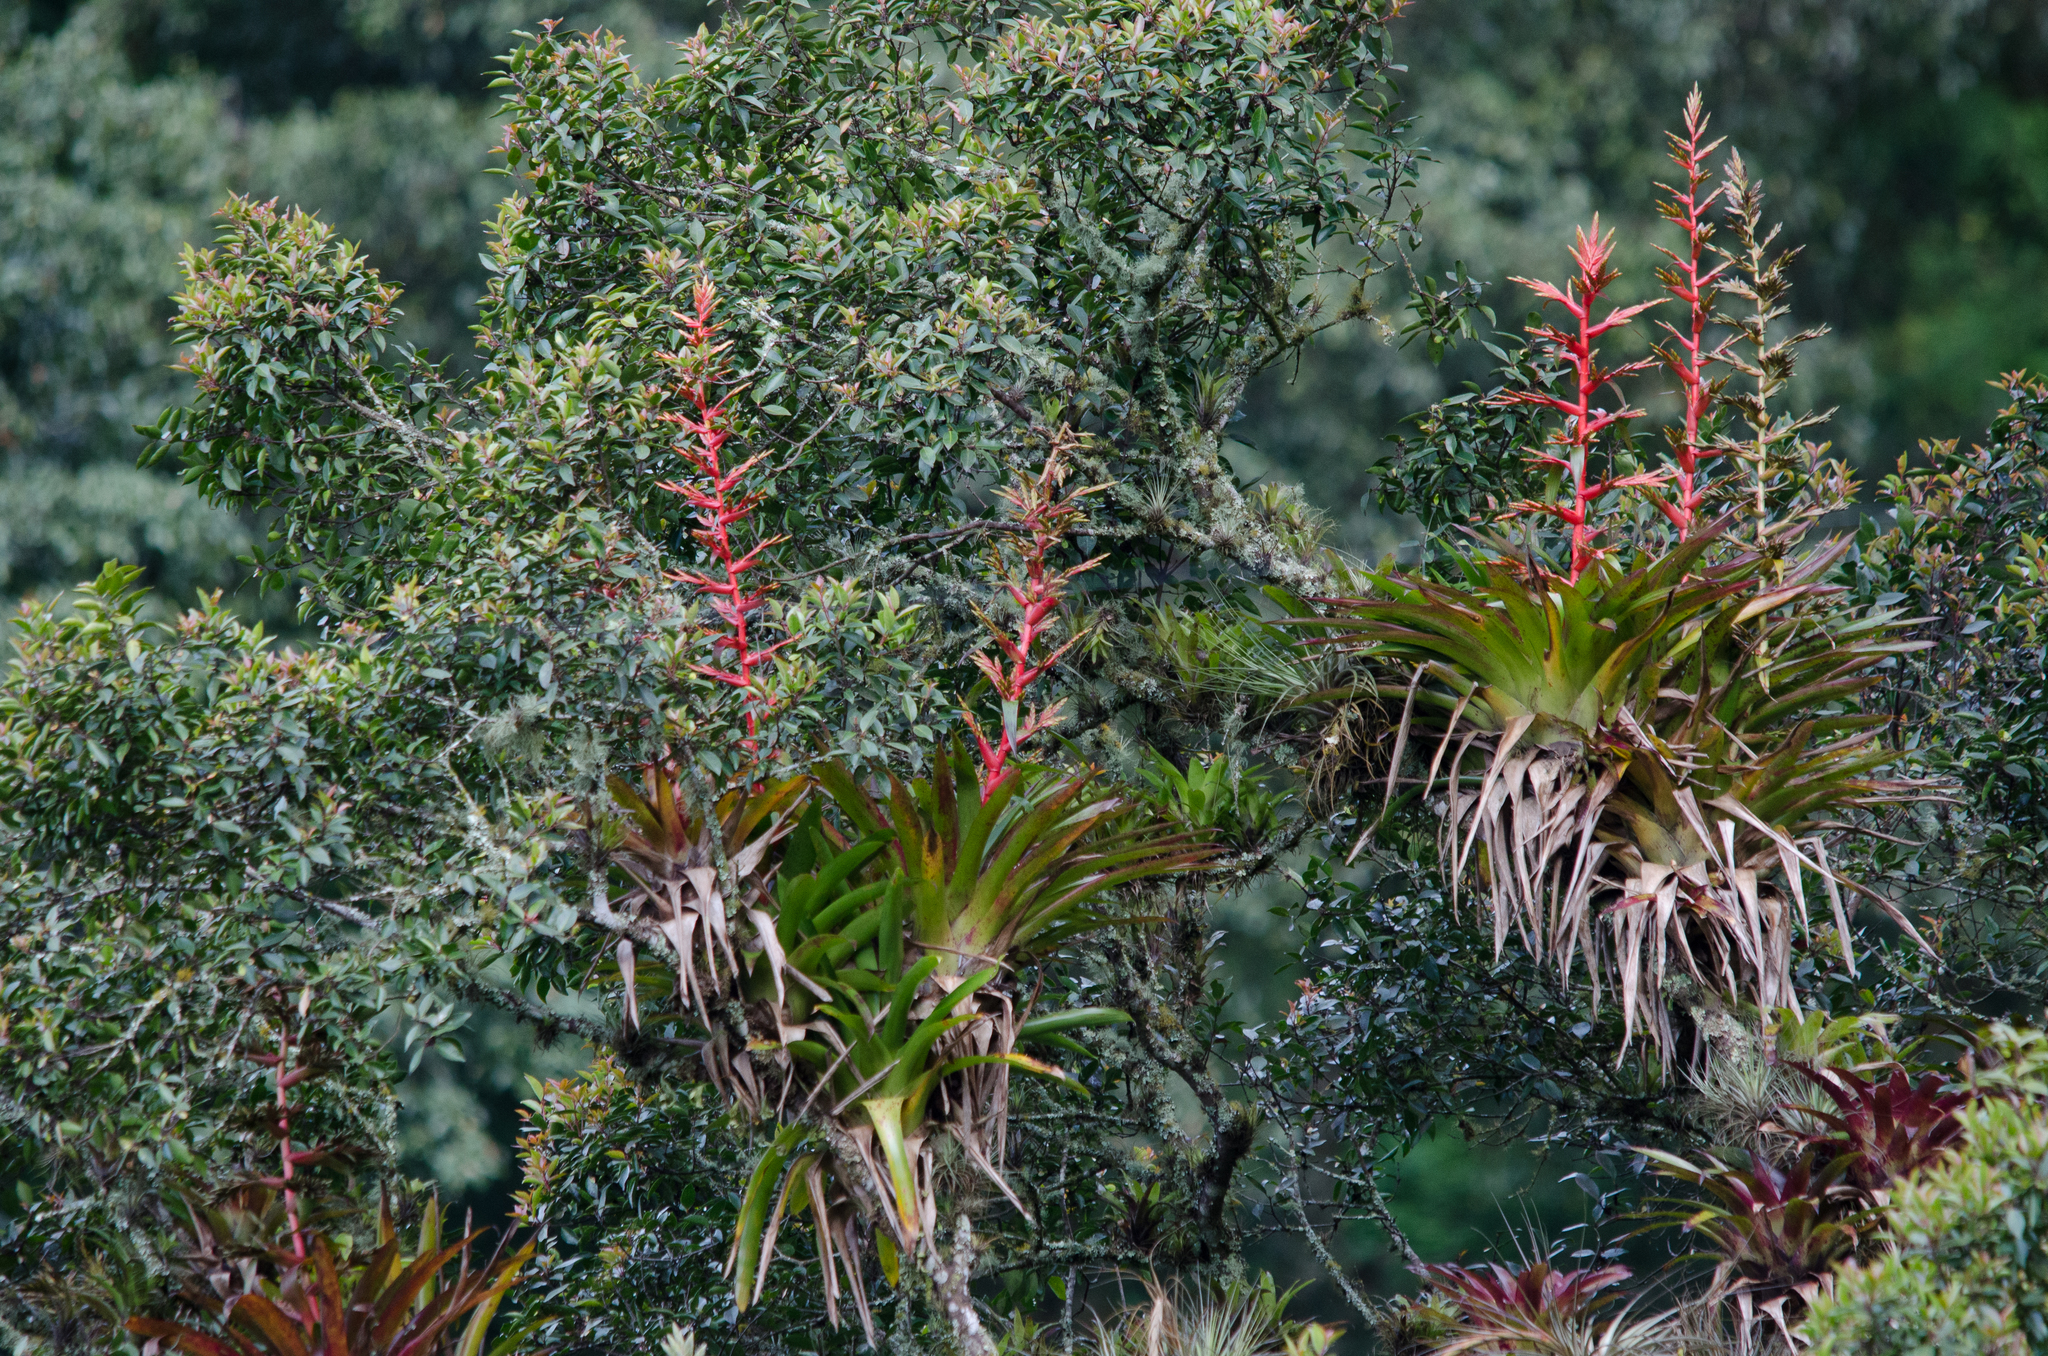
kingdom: Plantae
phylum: Tracheophyta
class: Liliopsida
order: Poales
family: Bromeliaceae
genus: Tillandsia
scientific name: Tillandsia guatemalensis
